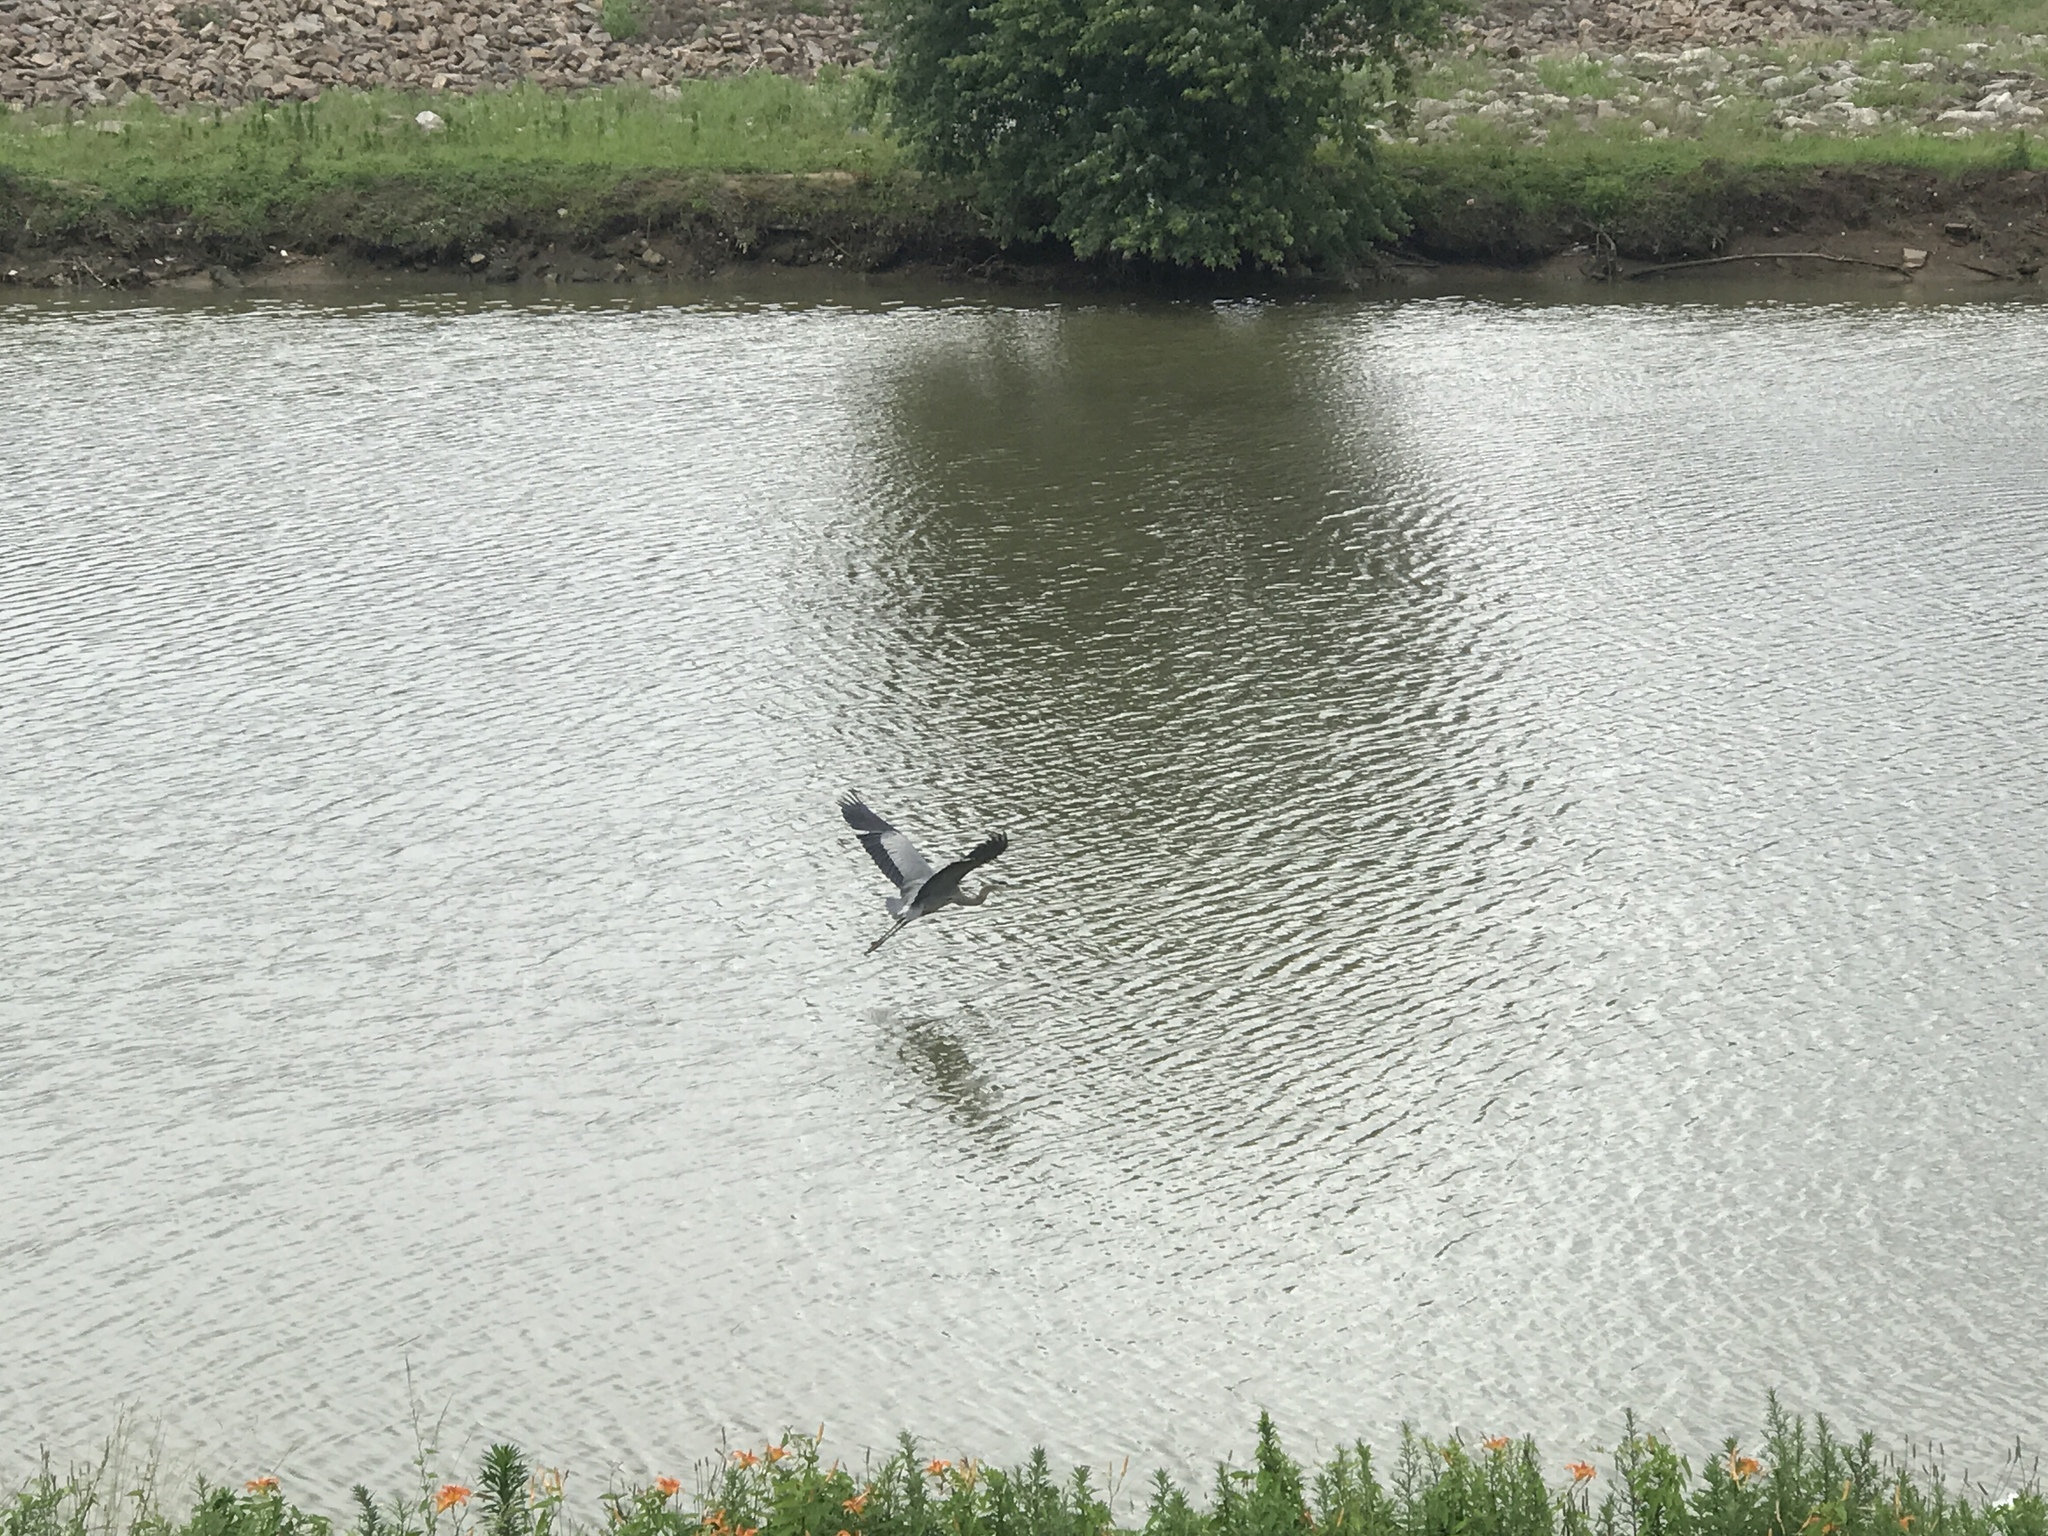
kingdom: Animalia
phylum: Chordata
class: Aves
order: Pelecaniformes
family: Ardeidae
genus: Ardea
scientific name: Ardea herodias
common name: Great blue heron
